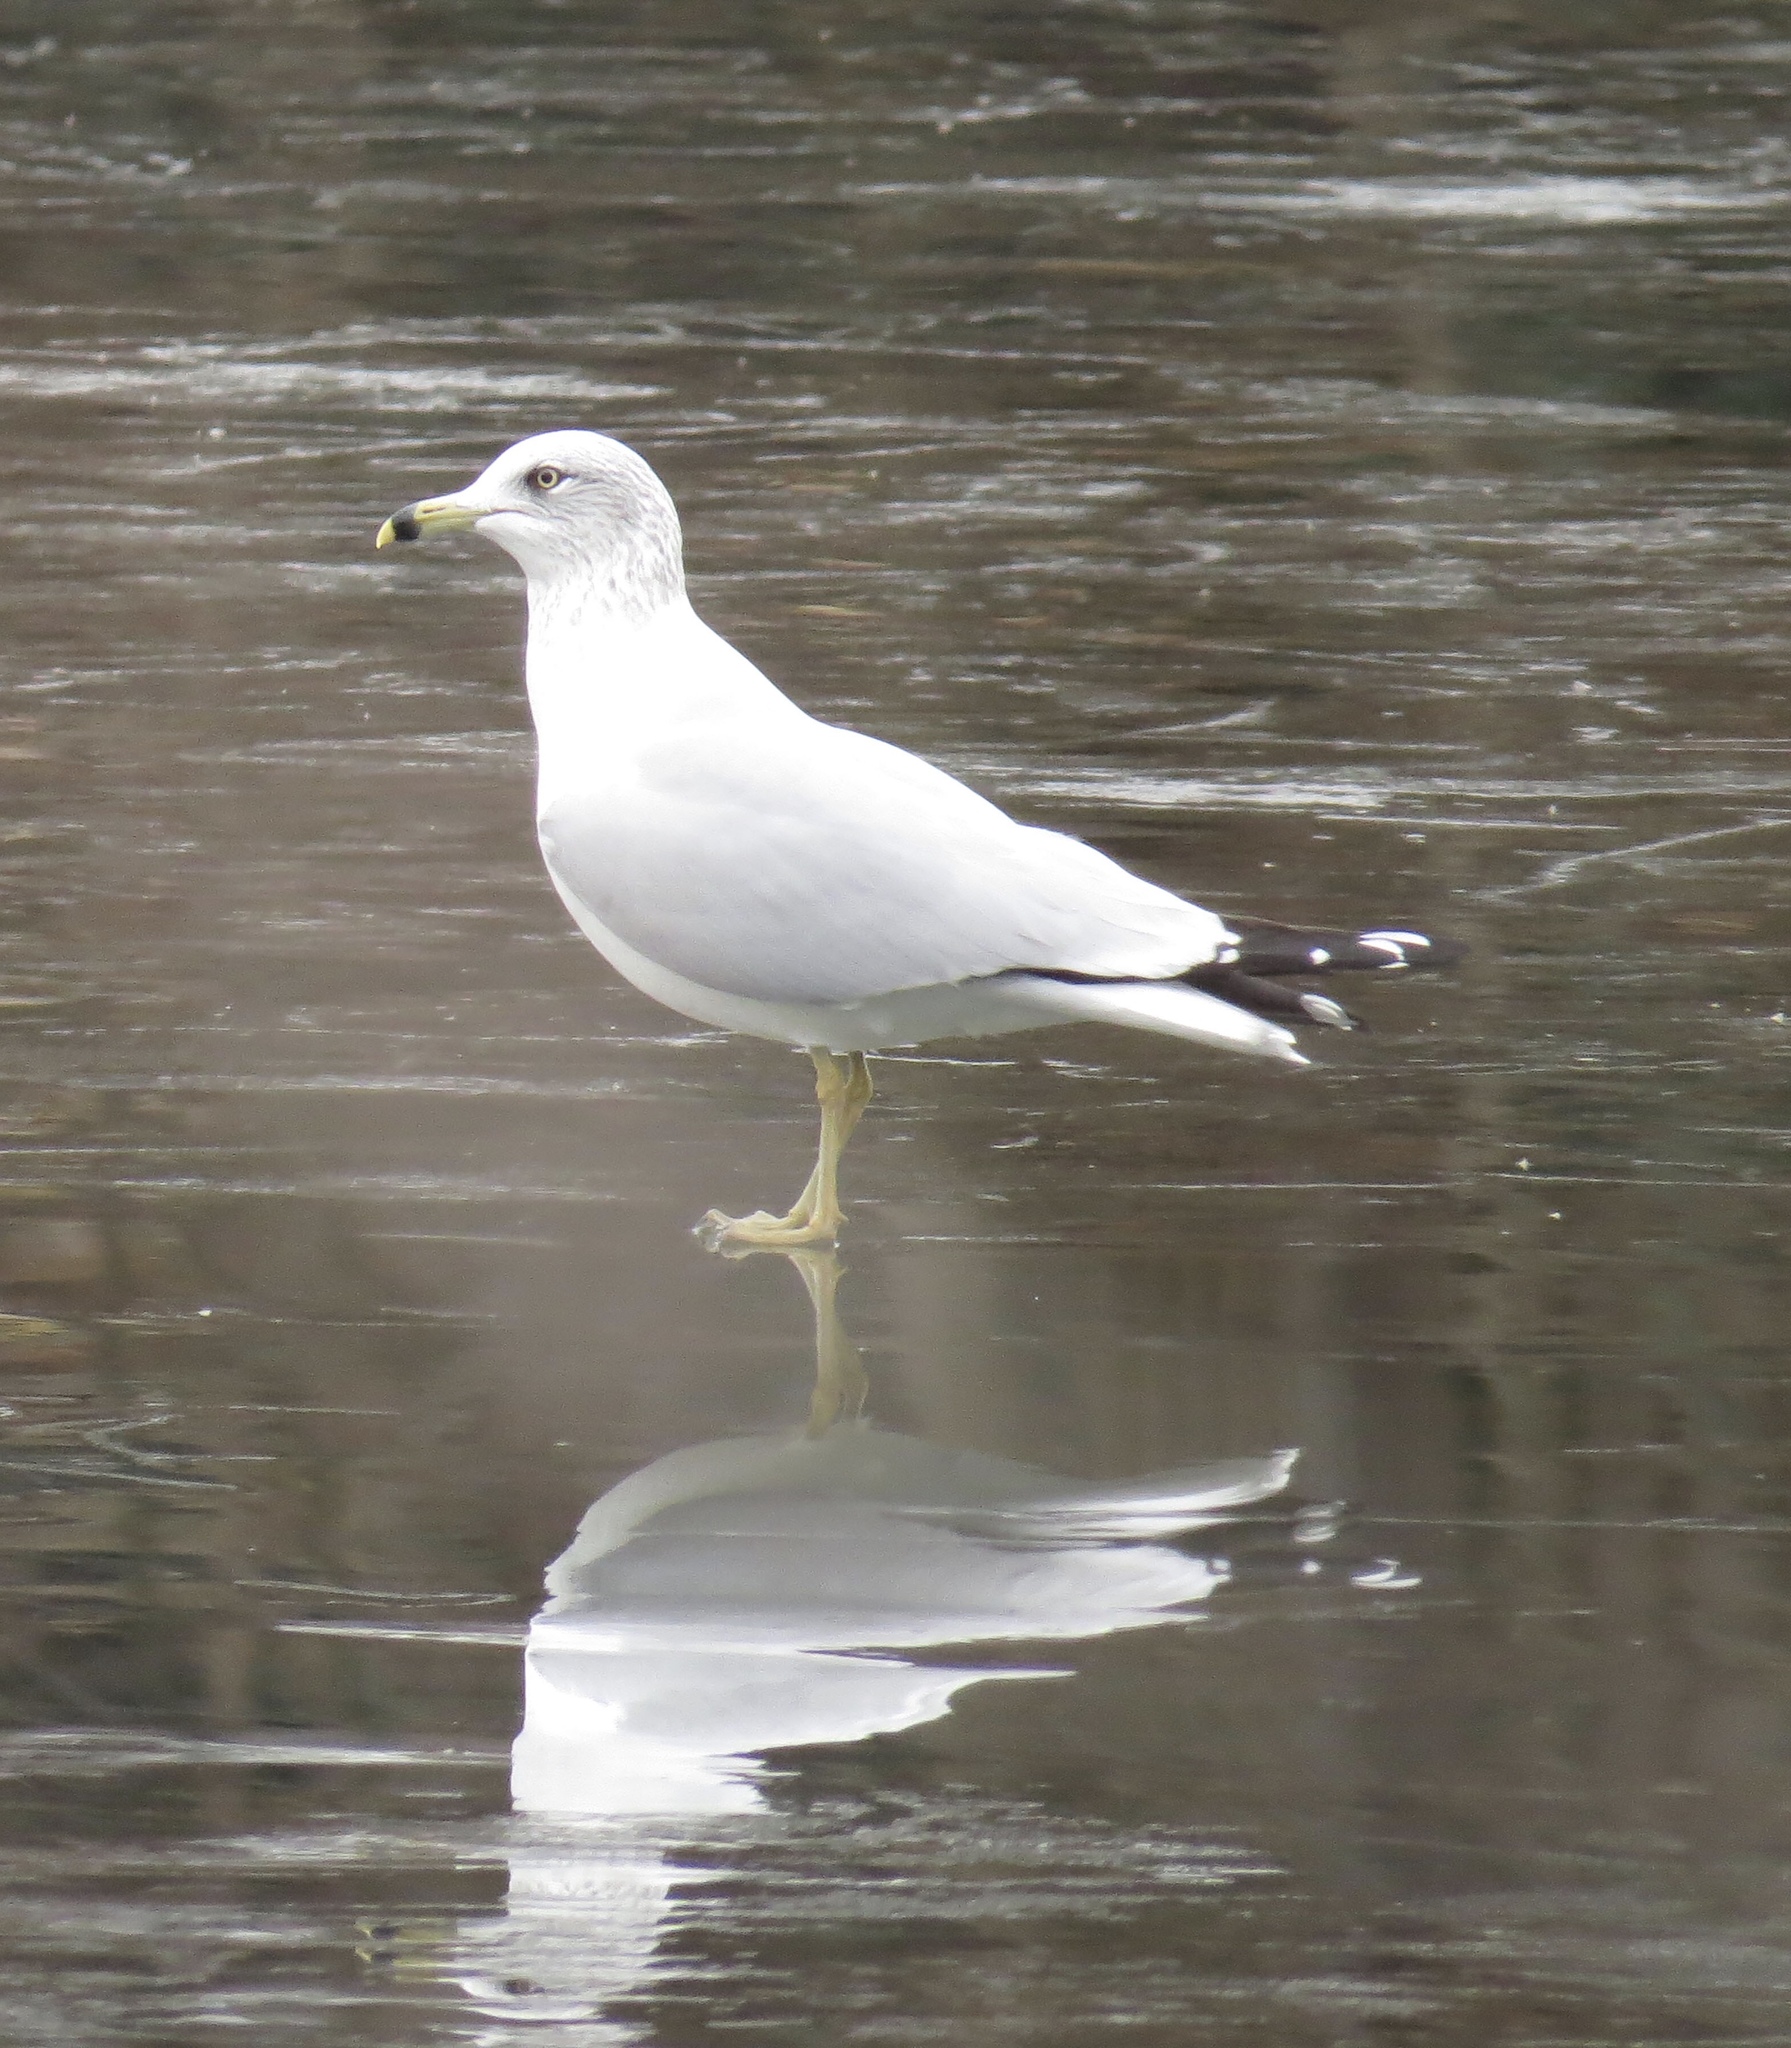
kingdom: Animalia
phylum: Chordata
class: Aves
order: Charadriiformes
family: Laridae
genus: Larus
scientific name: Larus delawarensis
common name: Ring-billed gull
